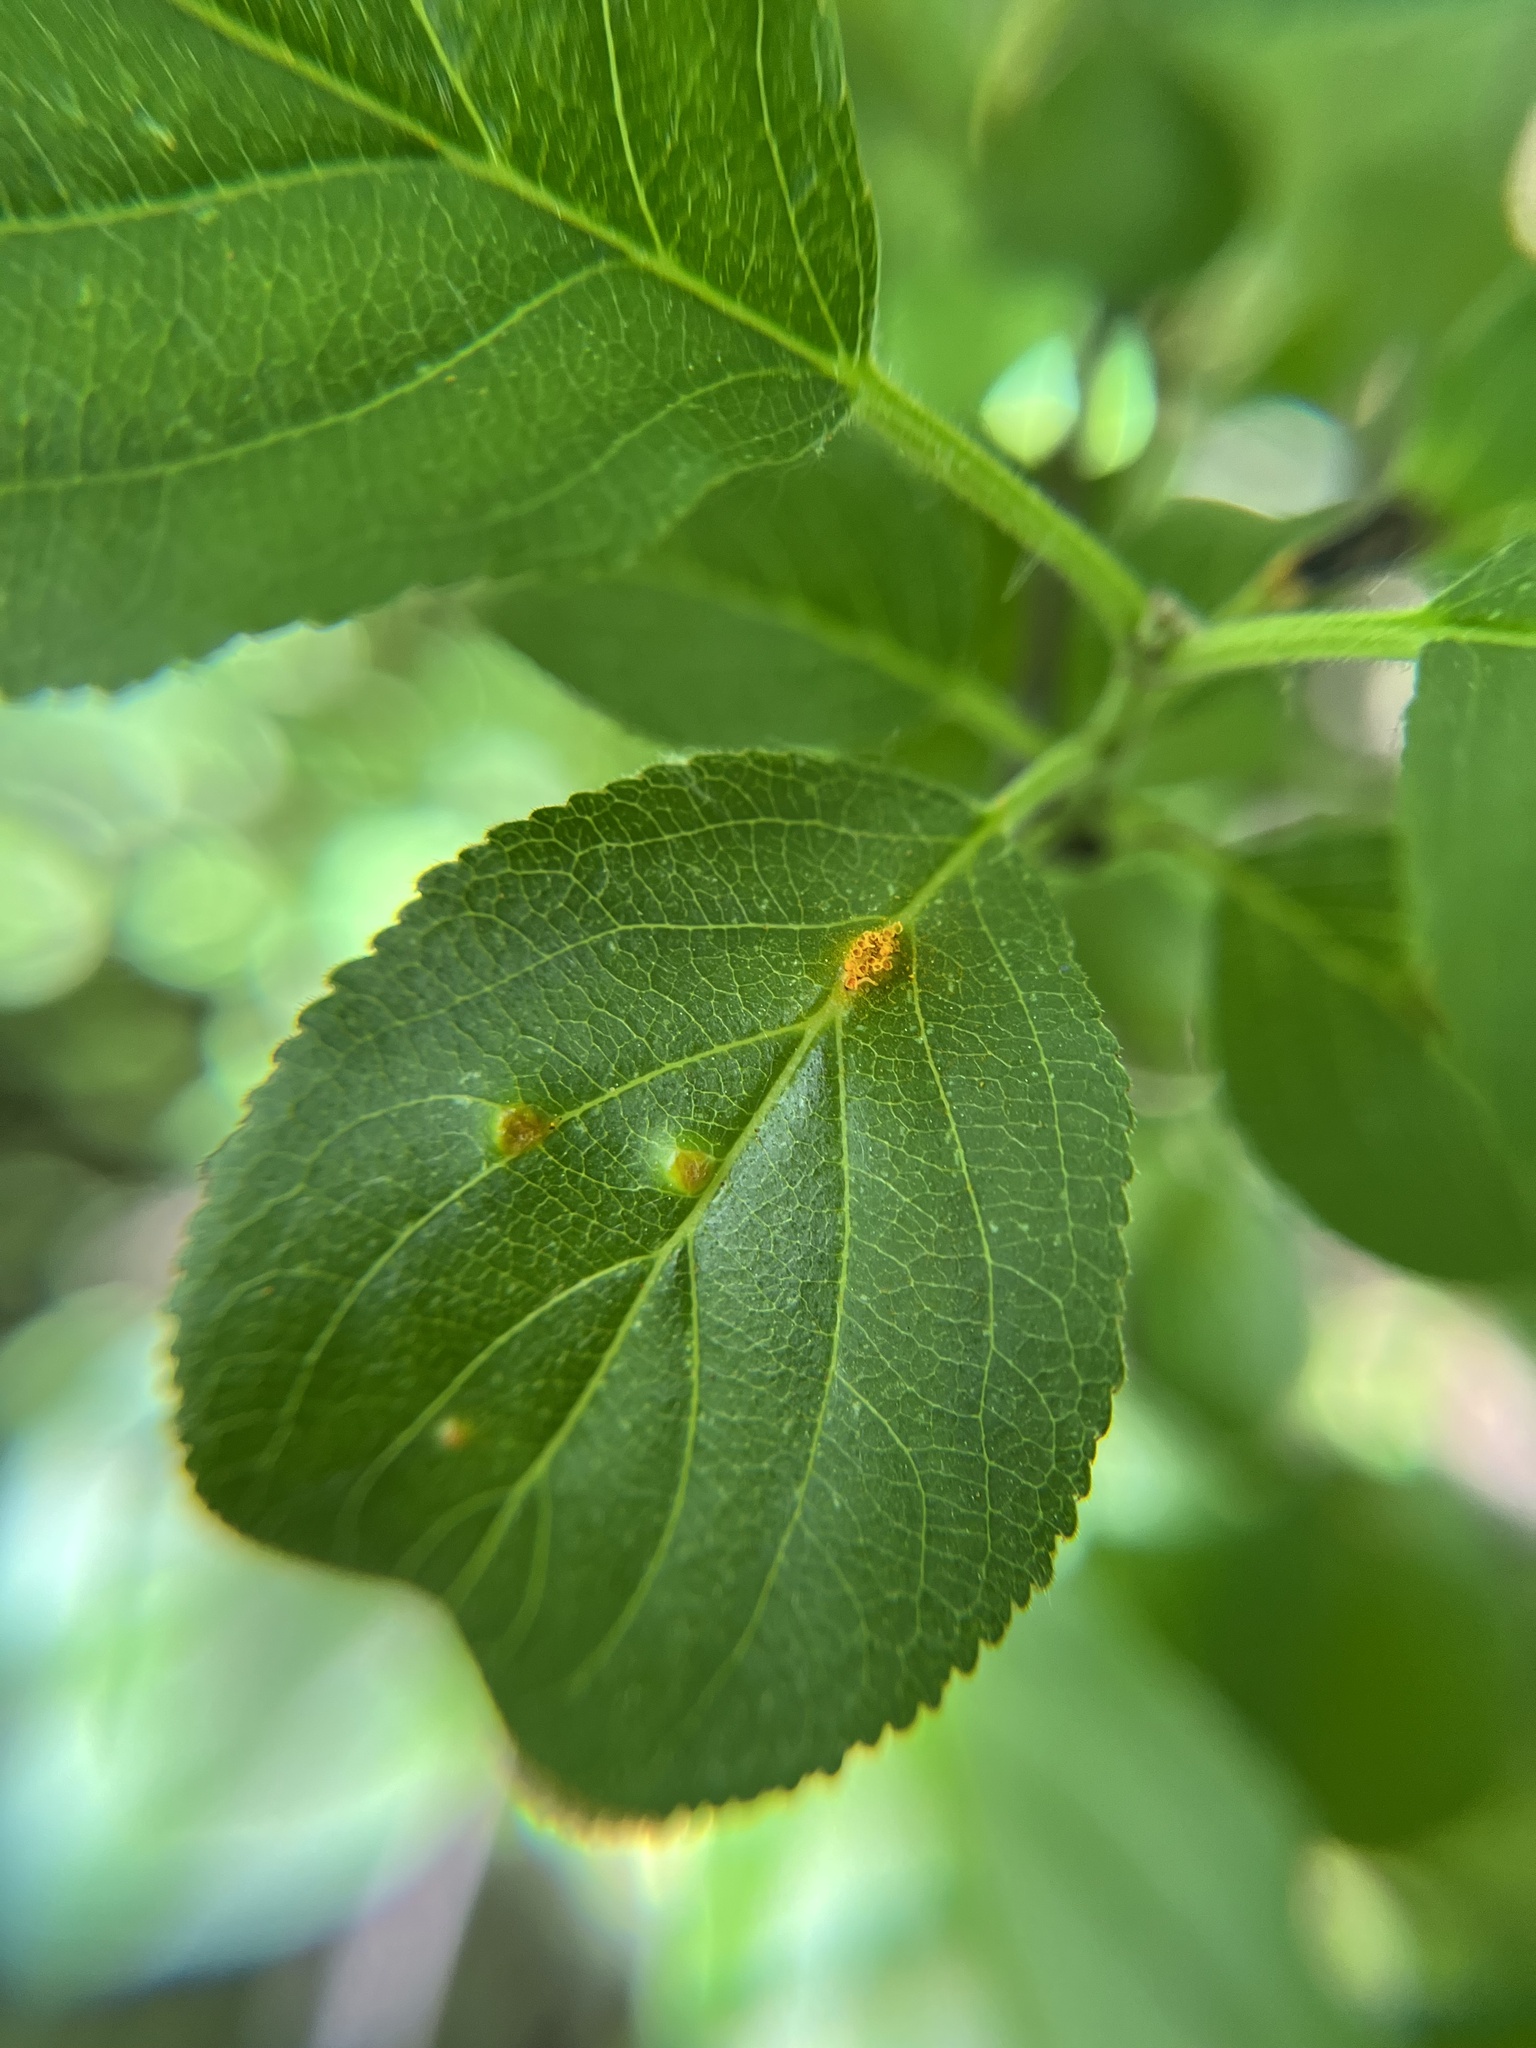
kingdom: Fungi
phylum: Basidiomycota
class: Pucciniomycetes
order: Pucciniales
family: Pucciniaceae
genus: Puccinia
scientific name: Puccinia
